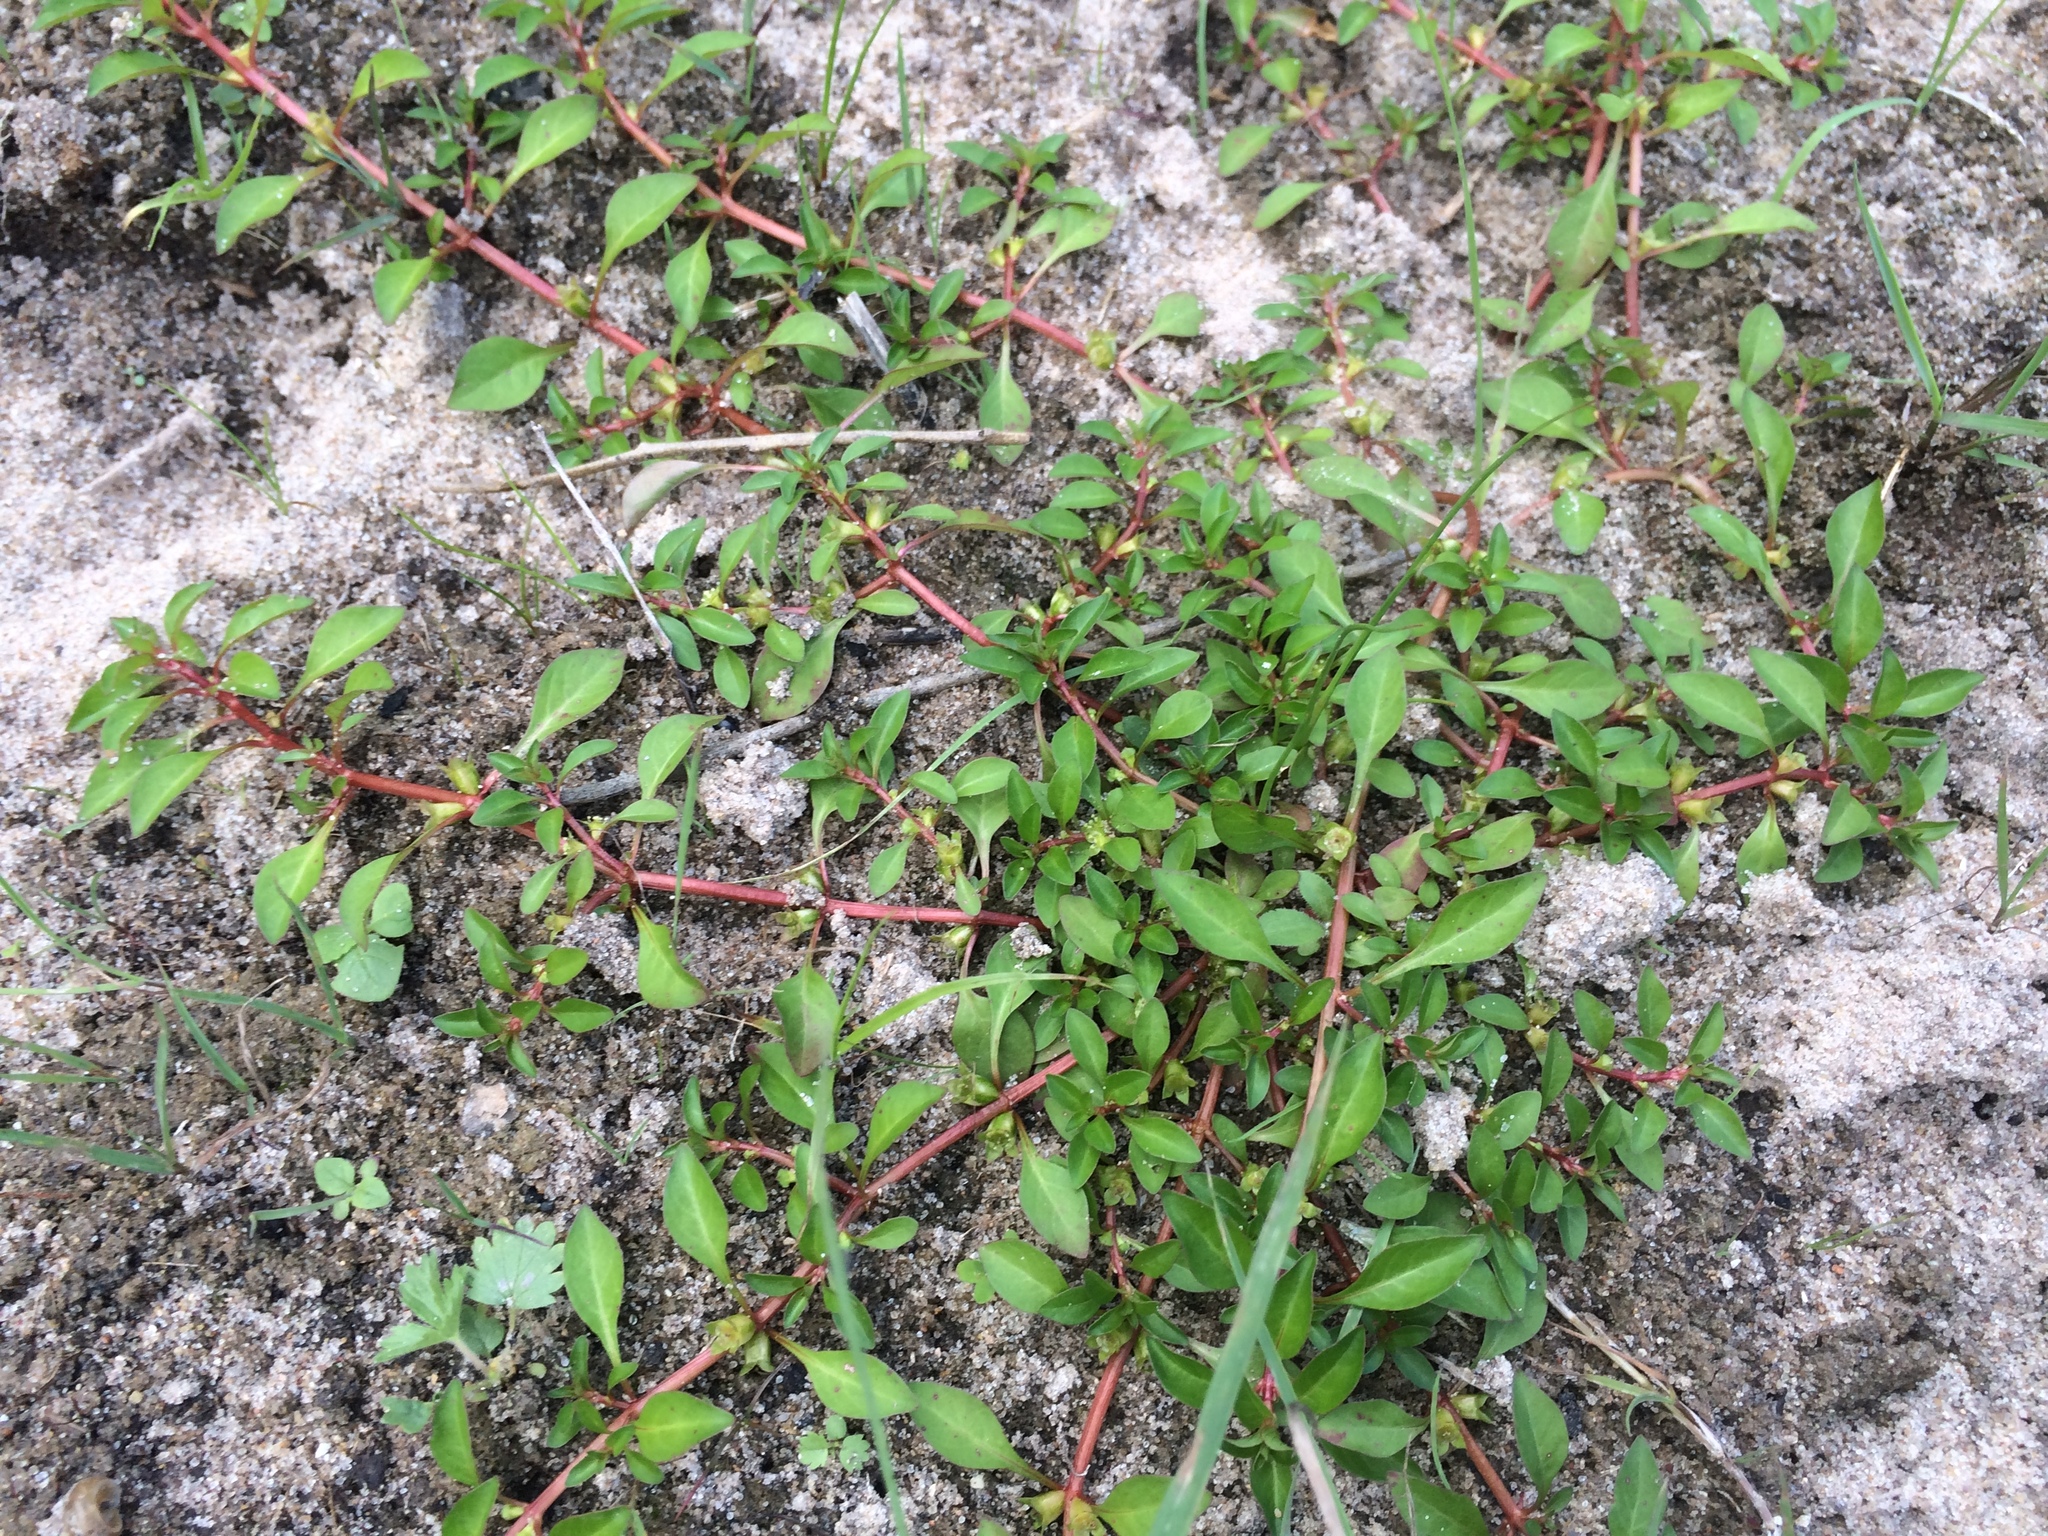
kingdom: Plantae
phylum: Tracheophyta
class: Magnoliopsida
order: Myrtales
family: Onagraceae
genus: Ludwigia
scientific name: Ludwigia palustris
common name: Hampshire-purslane
